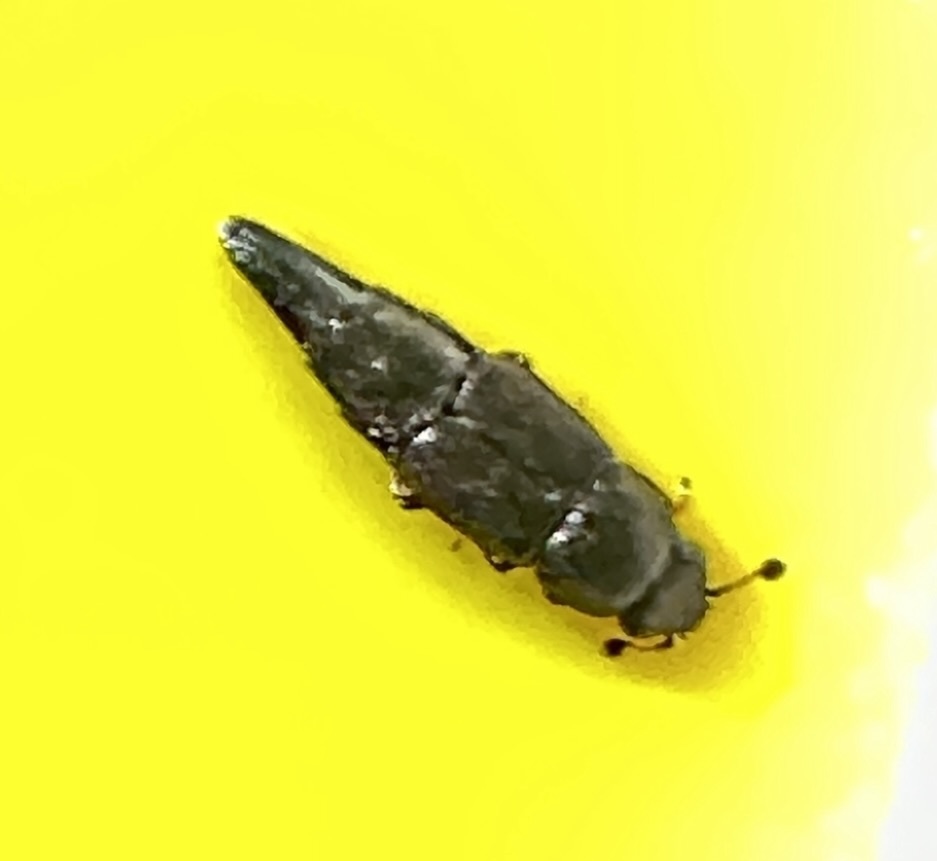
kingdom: Animalia
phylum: Arthropoda
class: Insecta
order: Coleoptera
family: Nitidulidae
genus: Conotelus
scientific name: Conotelus mexicanus
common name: Sap beetle
